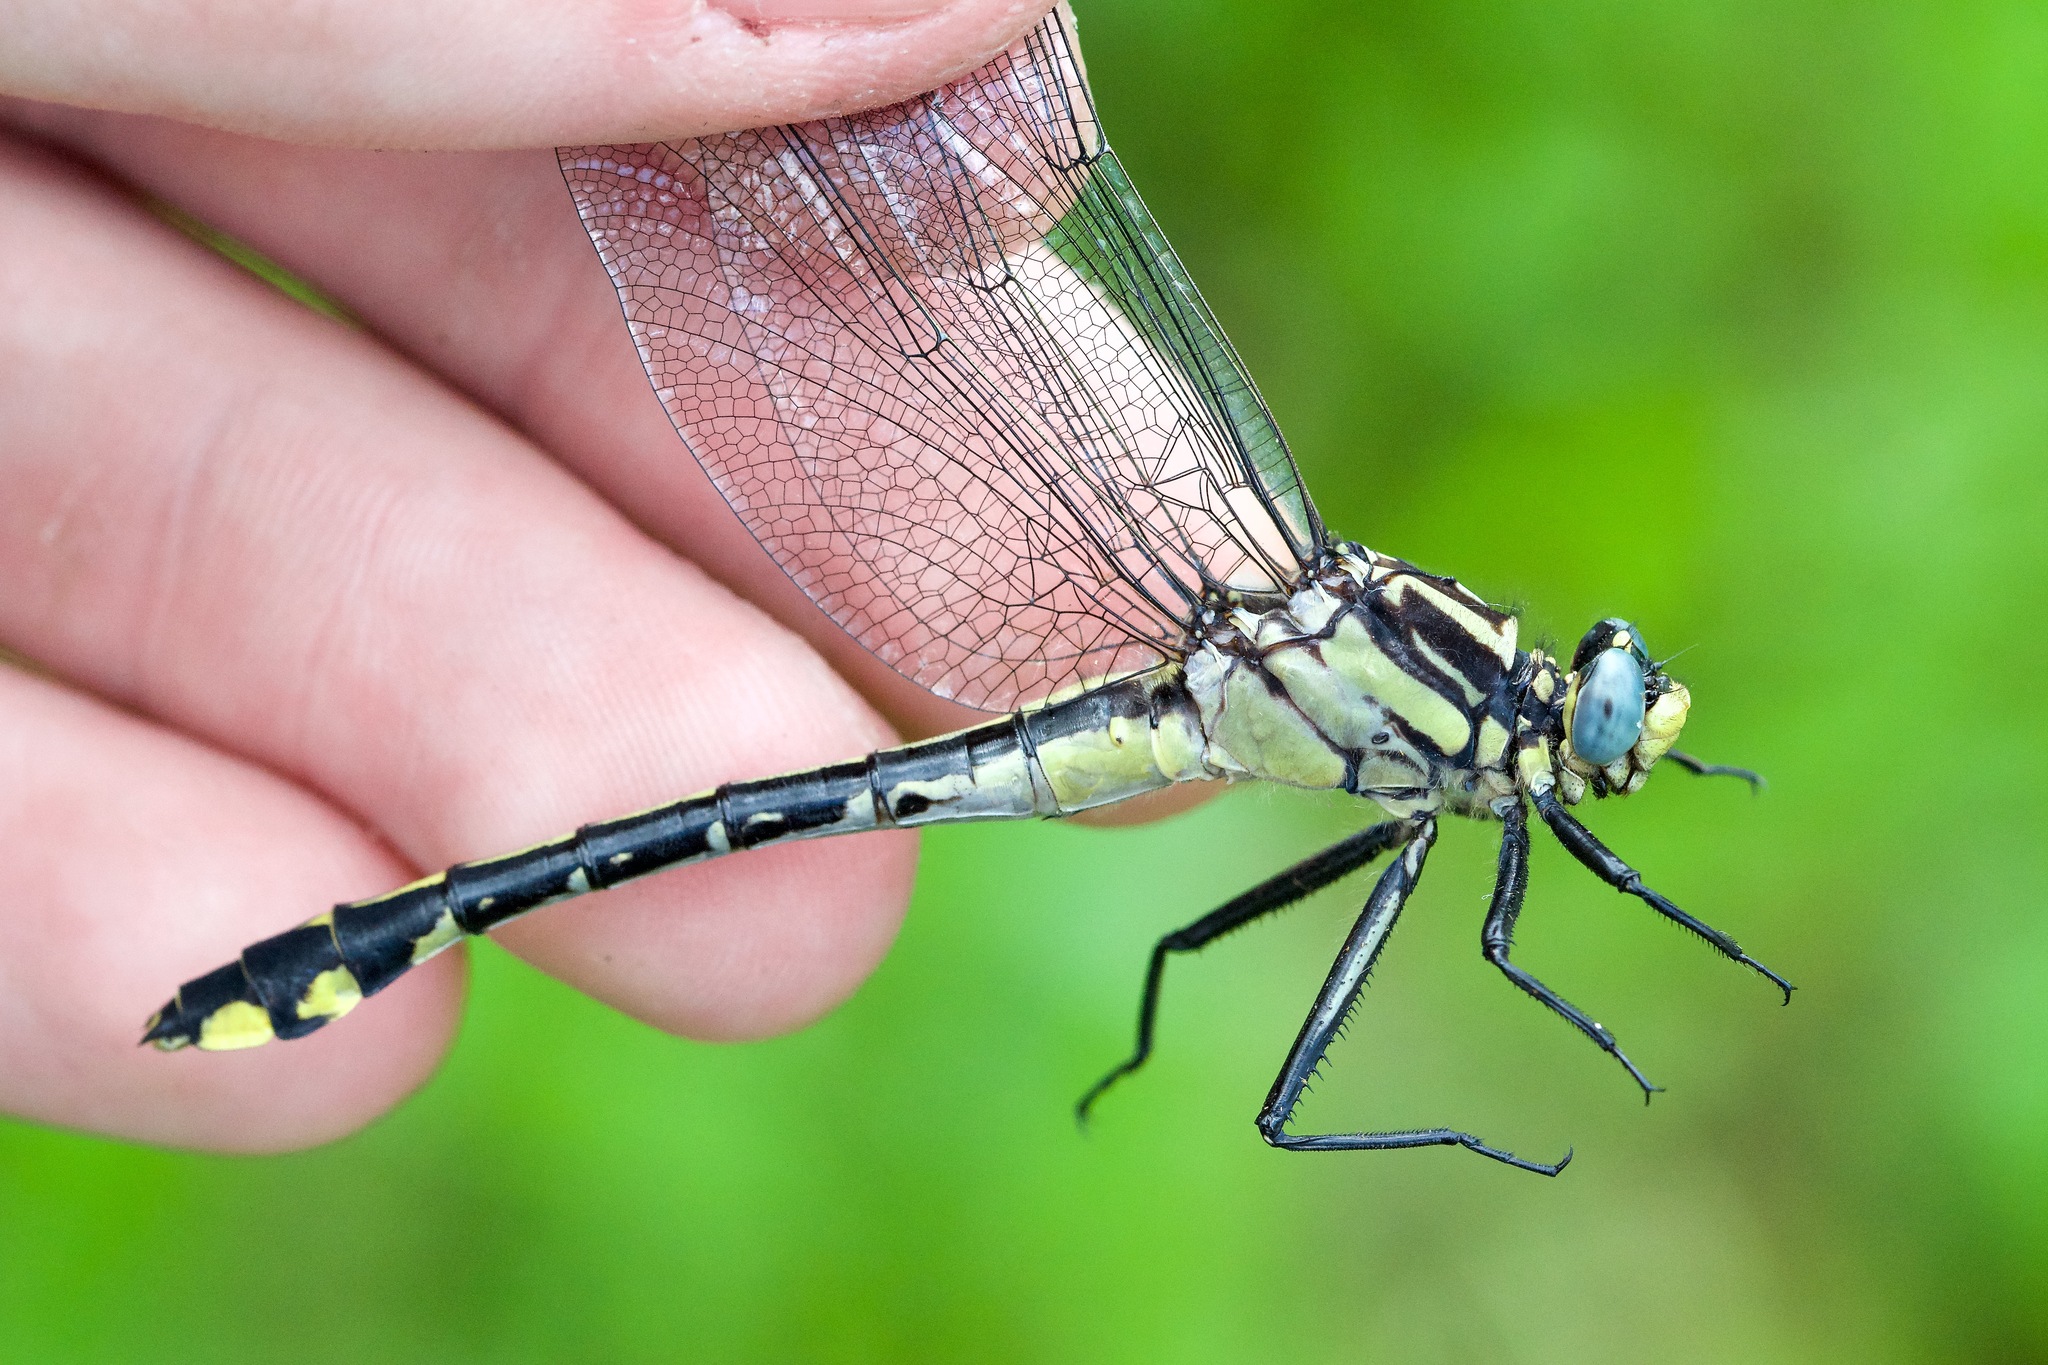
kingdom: Animalia
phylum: Arthropoda
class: Insecta
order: Odonata
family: Gomphidae
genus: Gomphurus
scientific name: Gomphurus fraternus
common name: Midland clubtail
